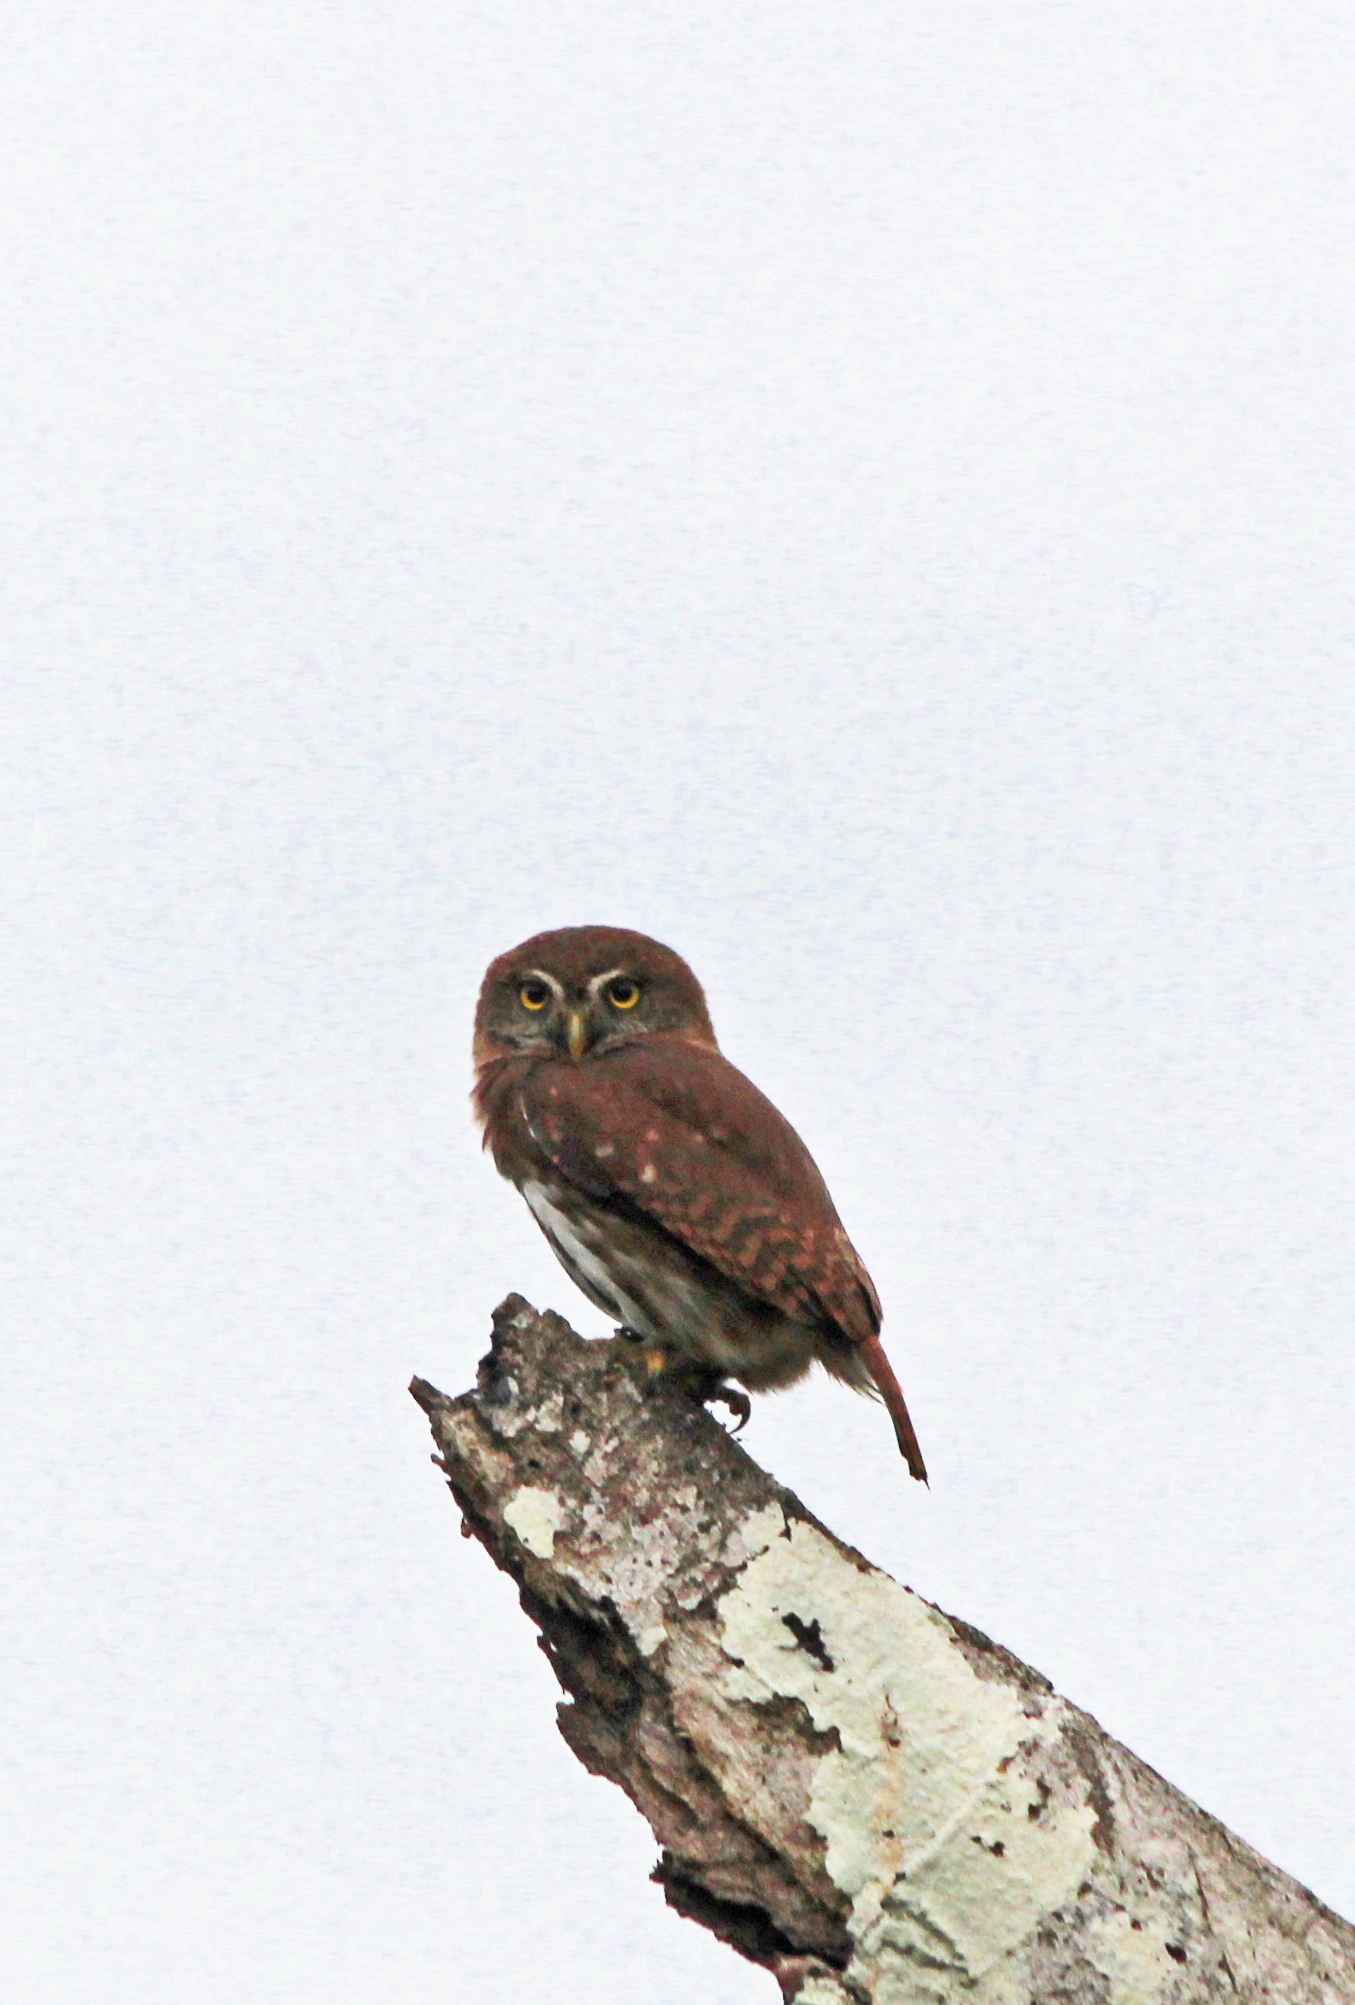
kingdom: Animalia
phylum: Chordata
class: Aves
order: Strigiformes
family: Strigidae
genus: Glaucidium
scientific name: Glaucidium brasilianum
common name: Ferruginous pygmy-owl
